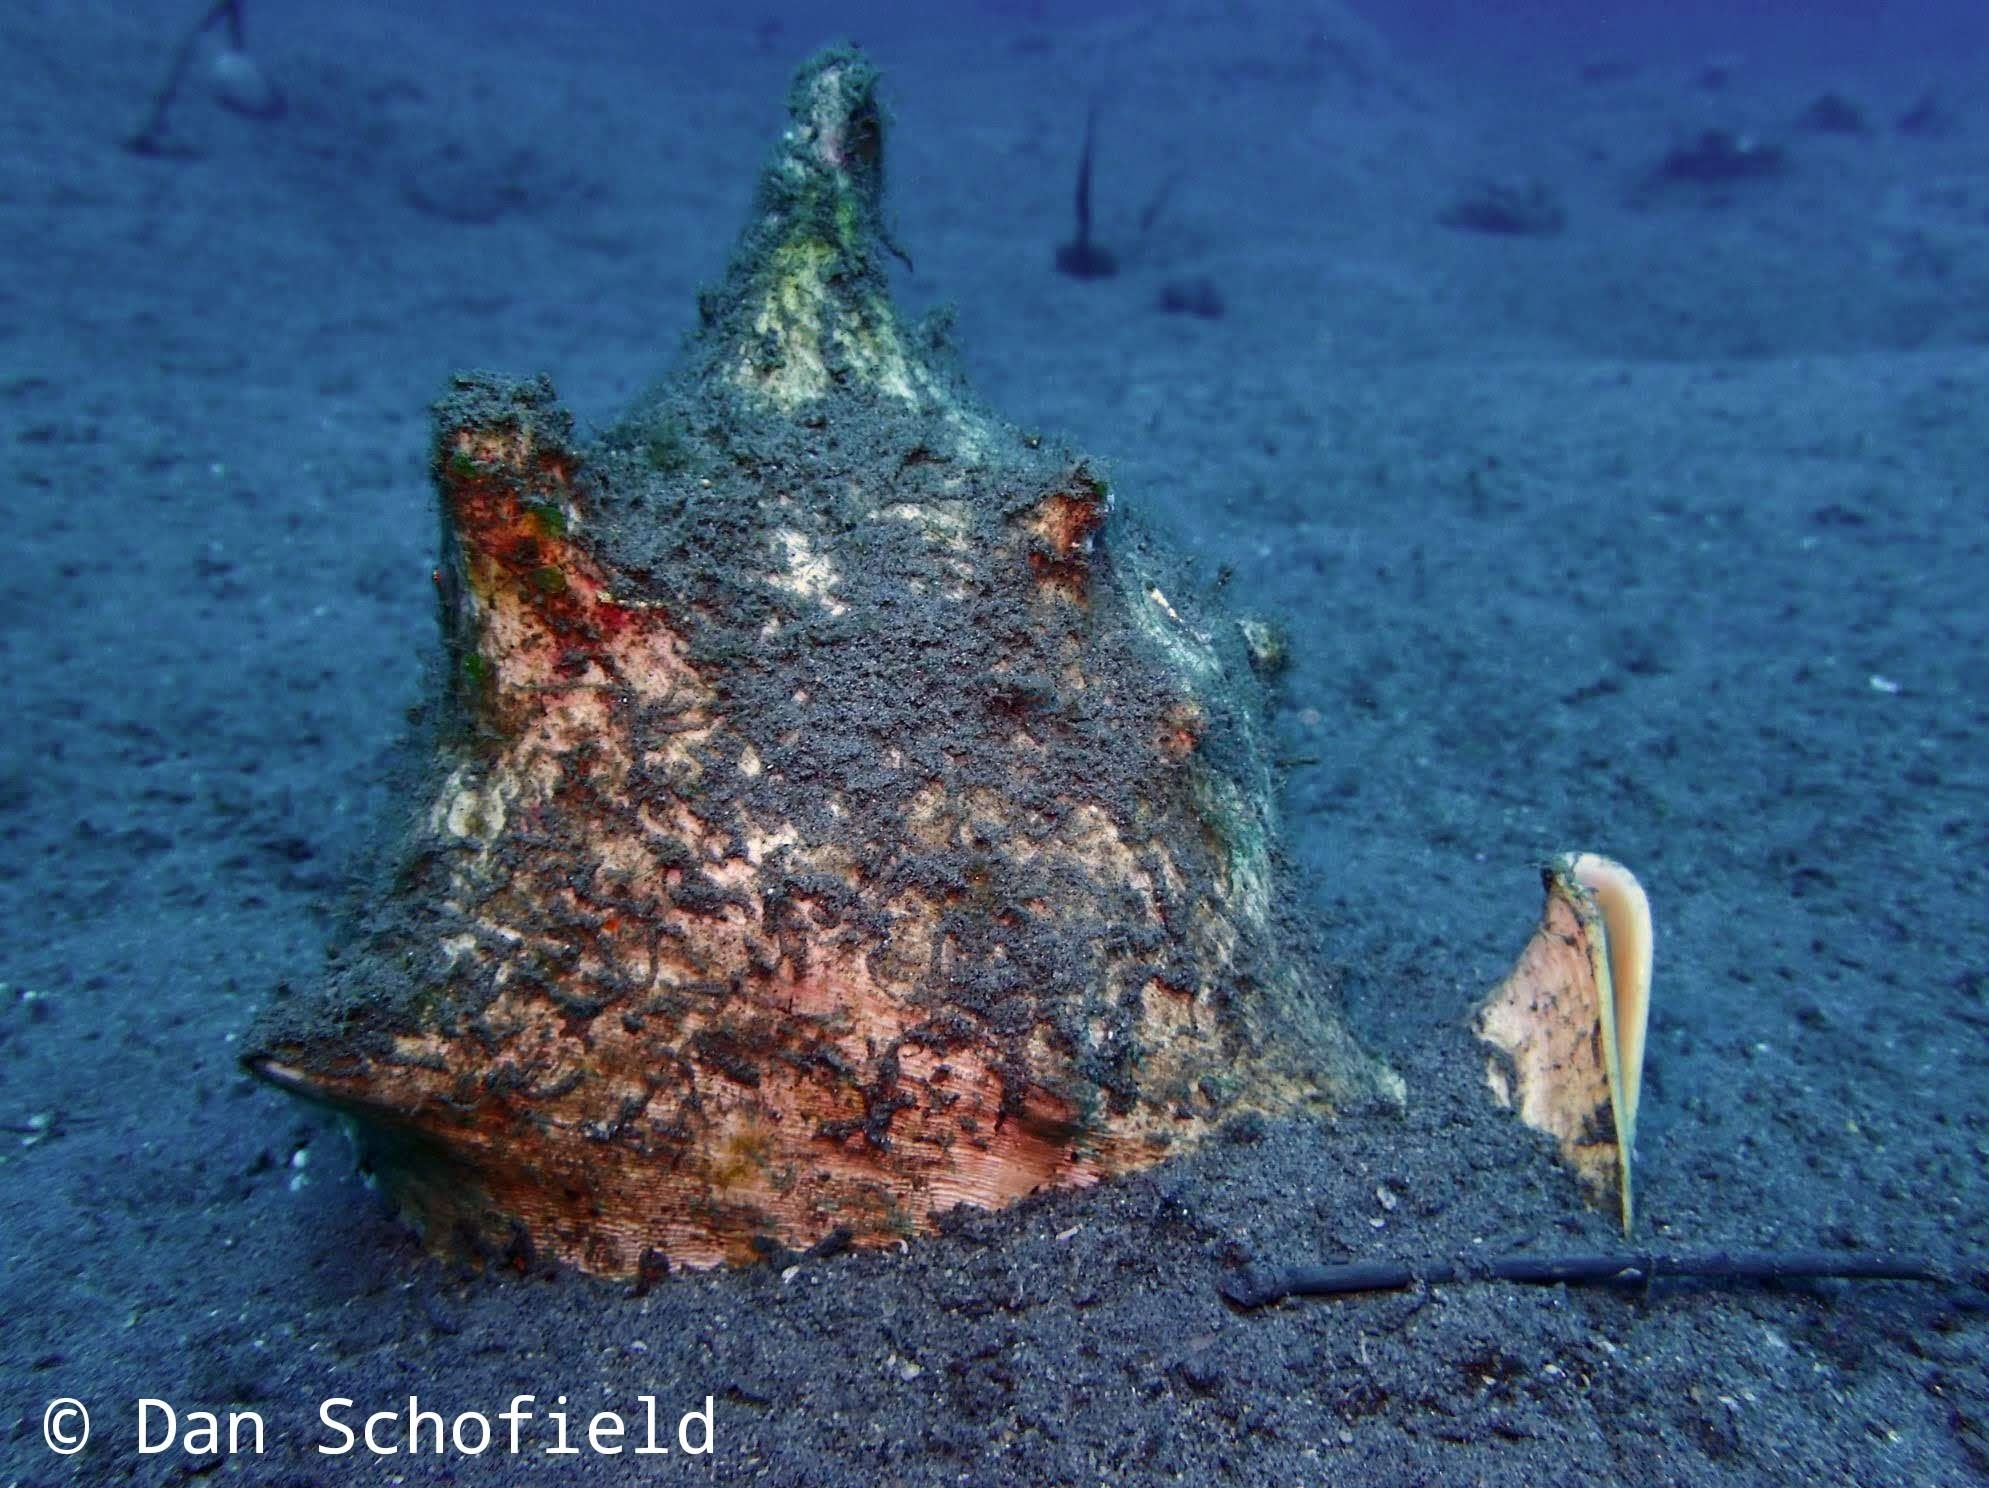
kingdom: Animalia
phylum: Mollusca
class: Gastropoda
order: Littorinimorpha
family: Cassidae
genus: Cassis
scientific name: Cassis cornuta
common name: Giant helmet
